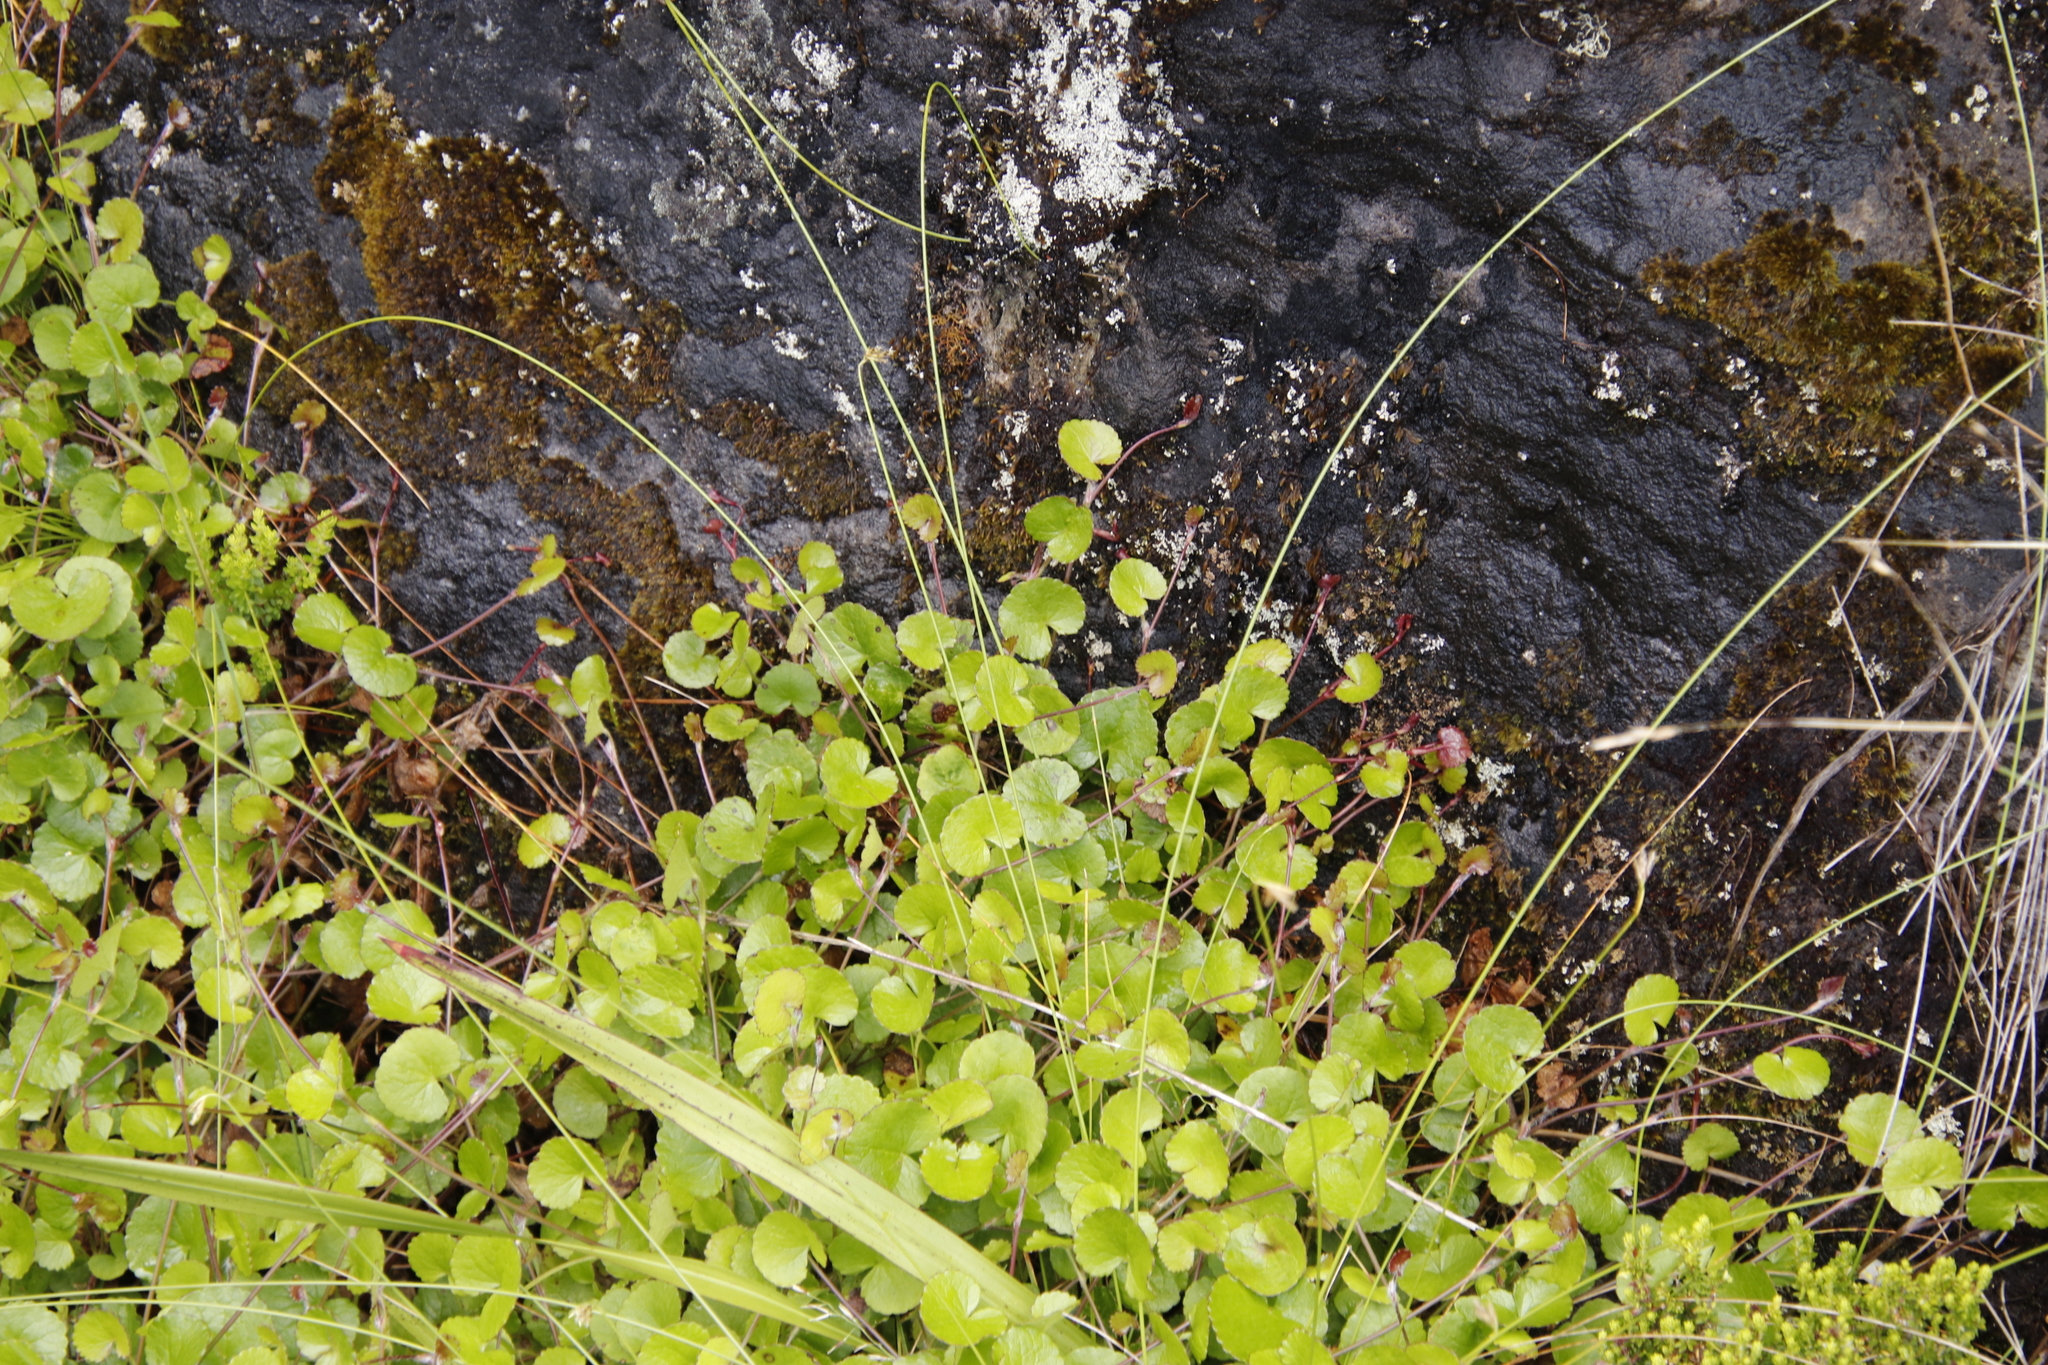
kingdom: Plantae
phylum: Tracheophyta
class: Magnoliopsida
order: Apiales
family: Apiaceae
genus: Centella
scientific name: Centella eriantha
